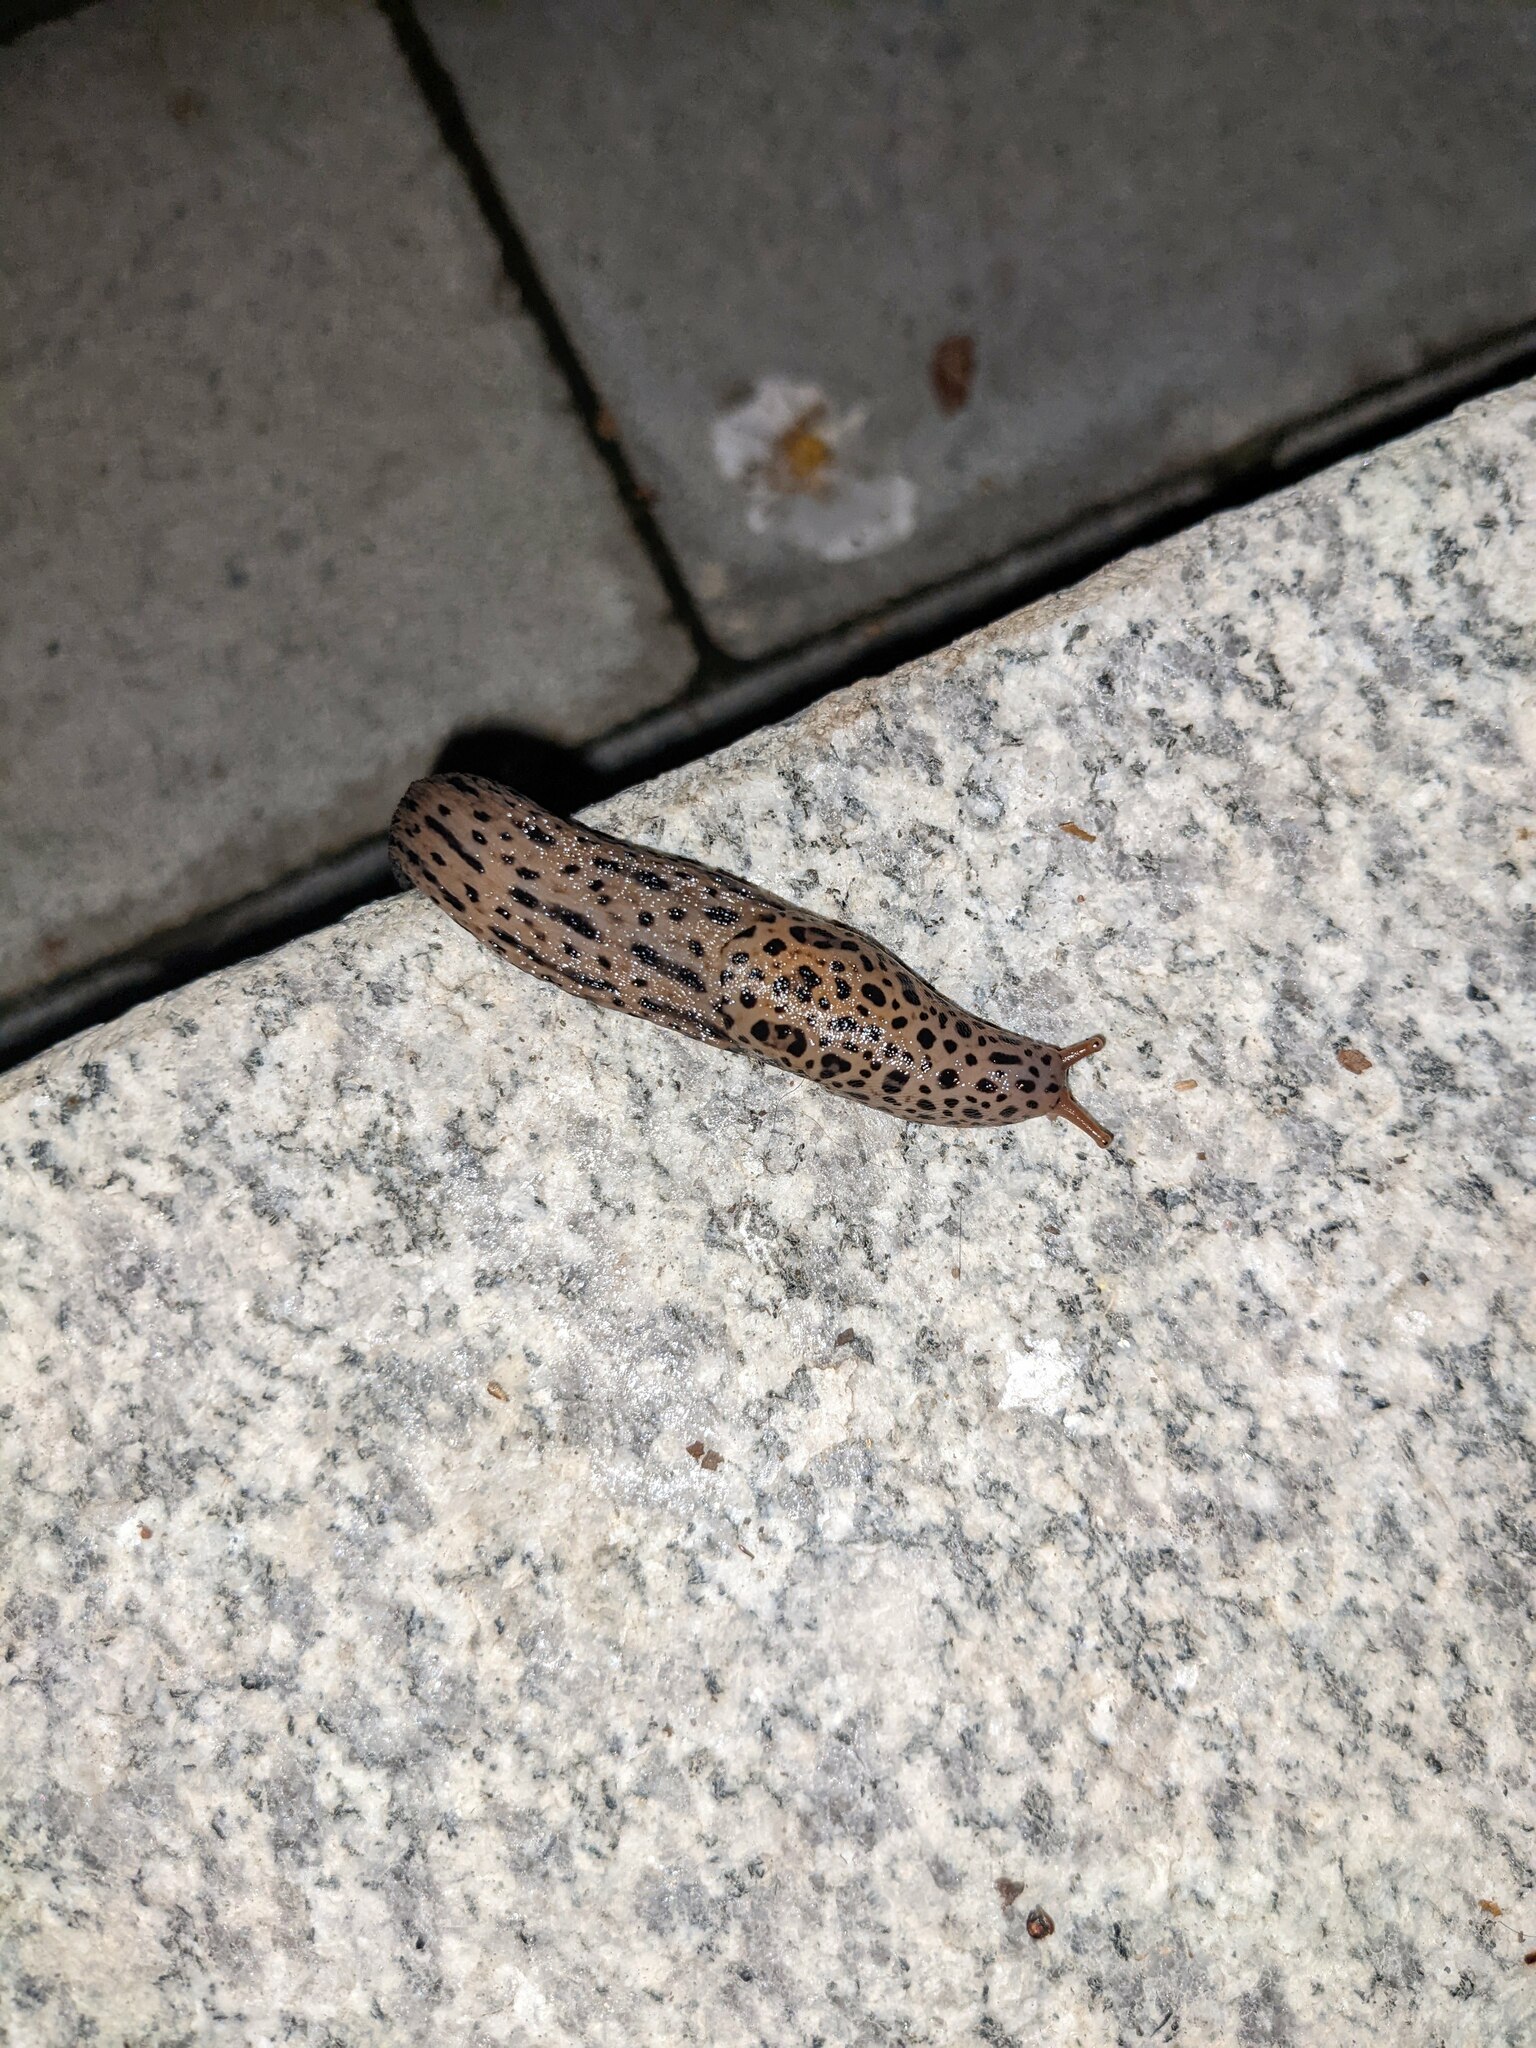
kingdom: Animalia
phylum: Mollusca
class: Gastropoda
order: Stylommatophora
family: Limacidae
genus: Limax
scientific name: Limax maximus
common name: Great grey slug
